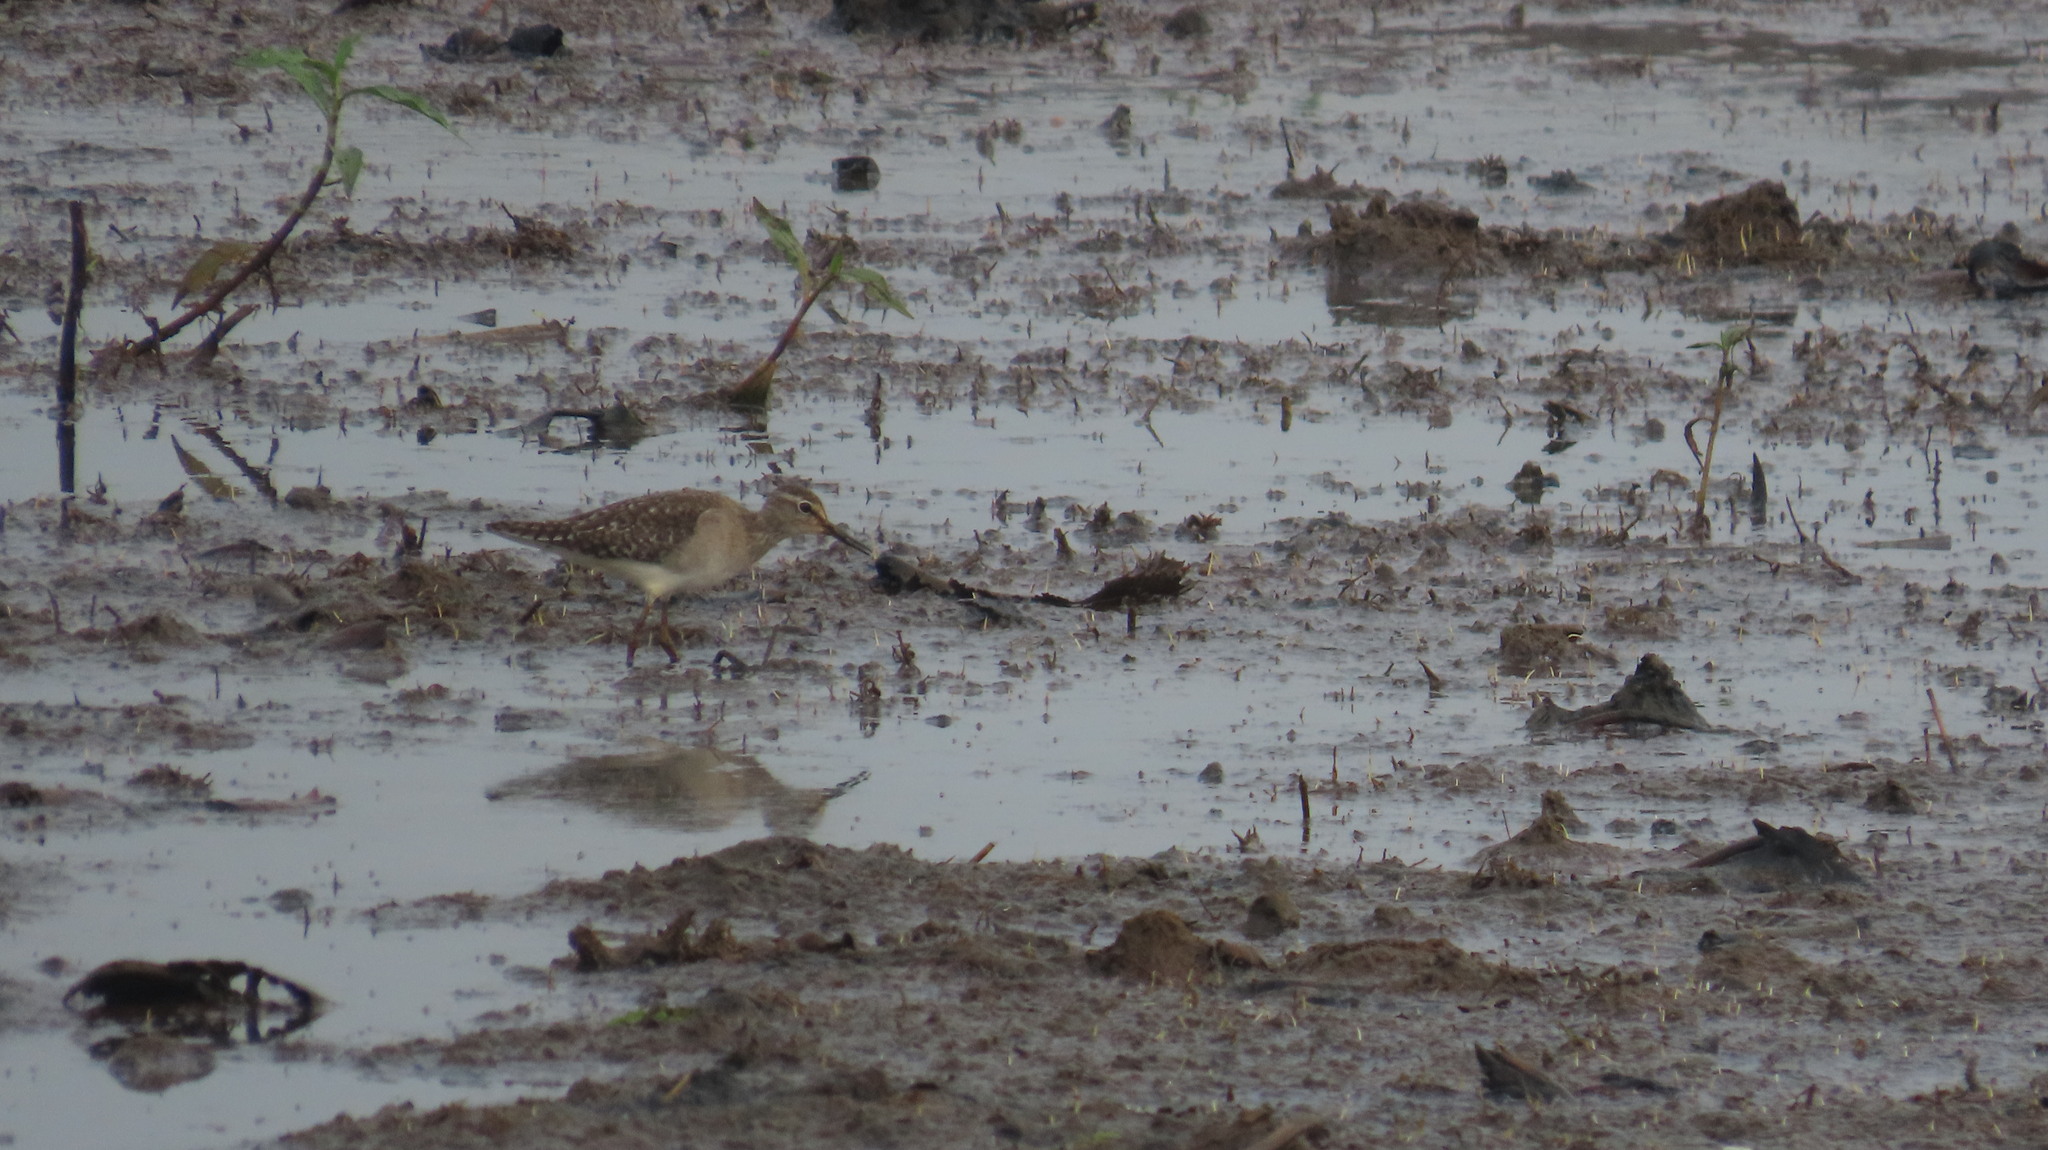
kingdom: Animalia
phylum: Chordata
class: Aves
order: Charadriiformes
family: Scolopacidae
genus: Tringa
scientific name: Tringa glareola
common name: Wood sandpiper
